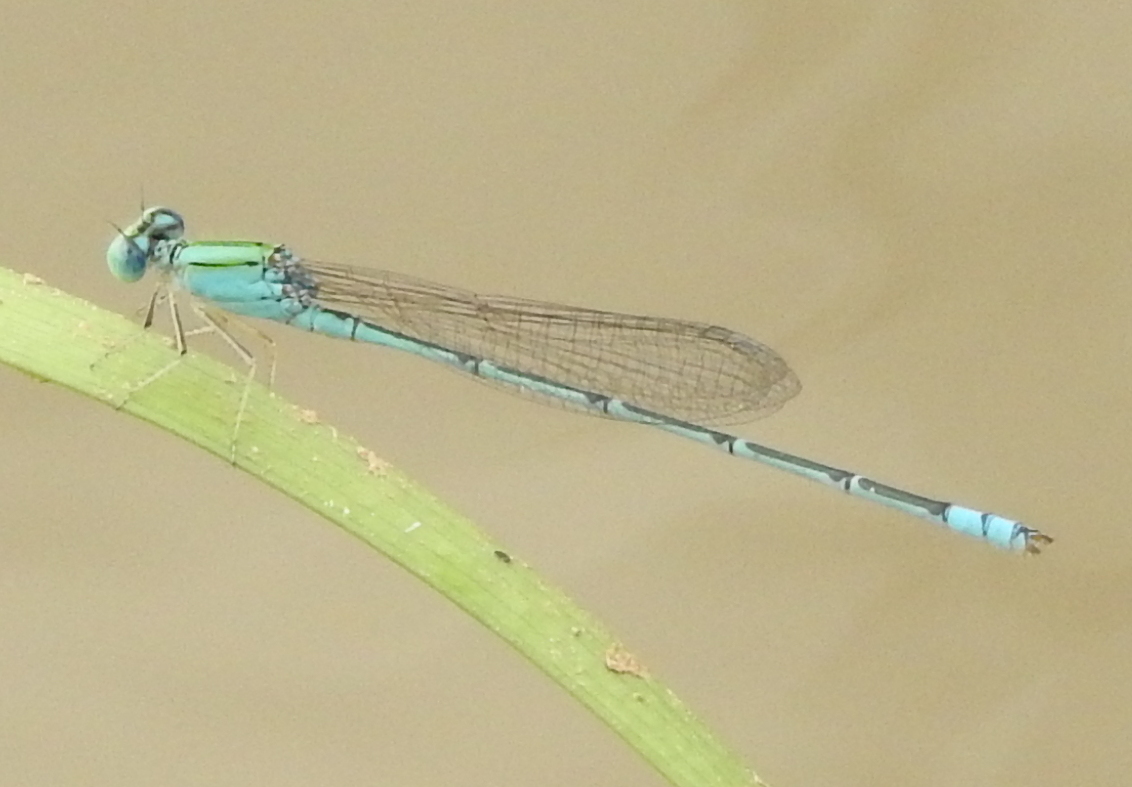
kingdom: Animalia
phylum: Arthropoda
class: Insecta
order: Odonata
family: Coenagrionidae
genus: Pseudagrion
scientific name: Pseudagrion decorum
